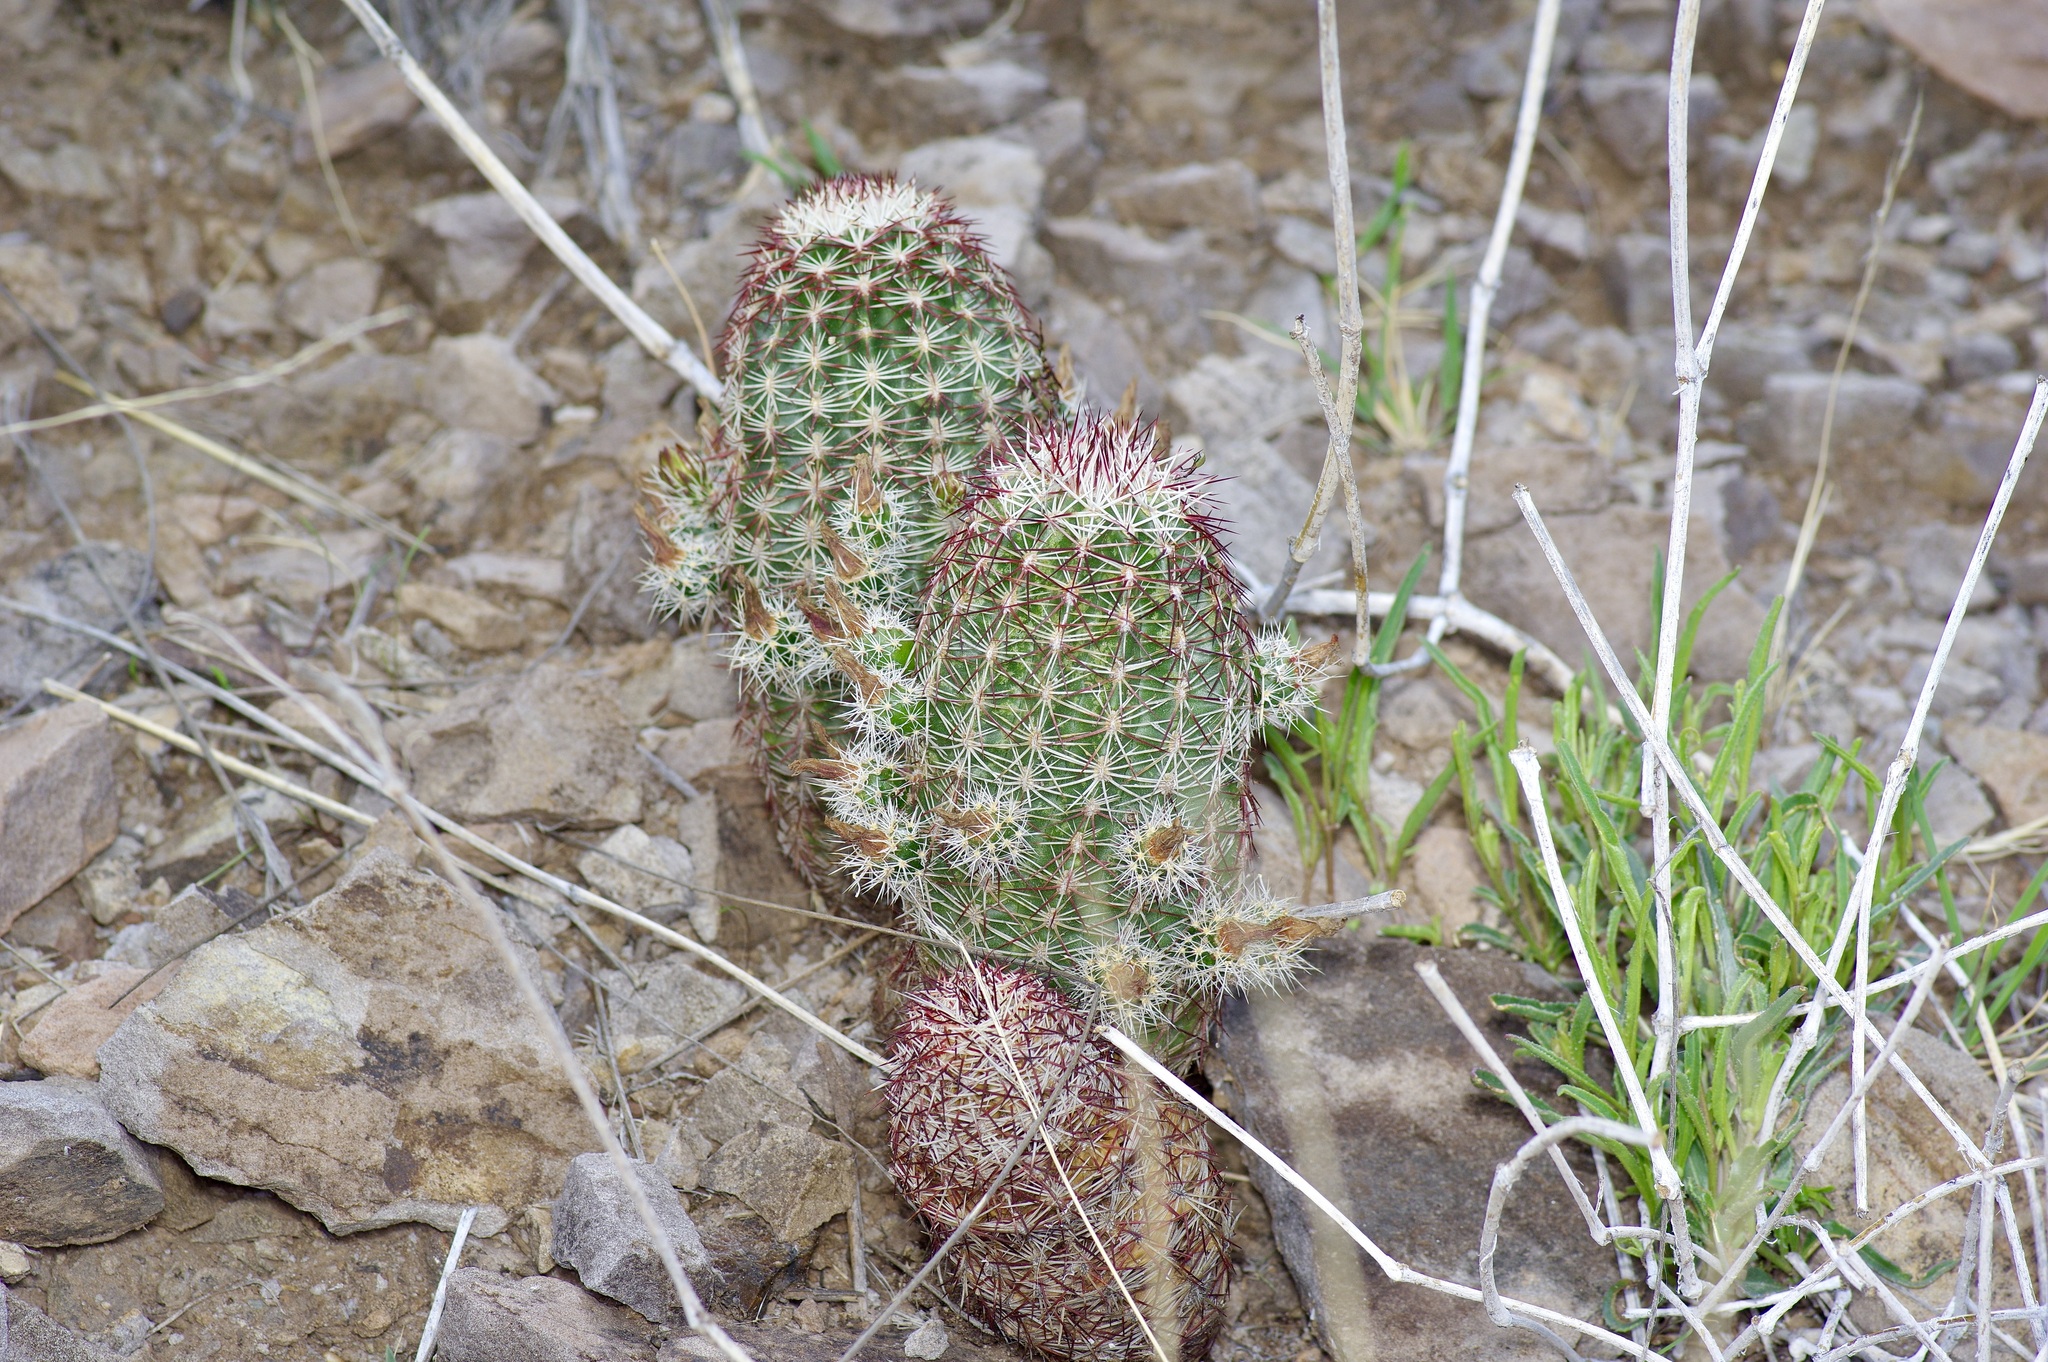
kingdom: Plantae
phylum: Tracheophyta
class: Magnoliopsida
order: Caryophyllales
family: Cactaceae
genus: Echinocereus
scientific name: Echinocereus viridiflorus
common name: Nylon hedgehog cactus
